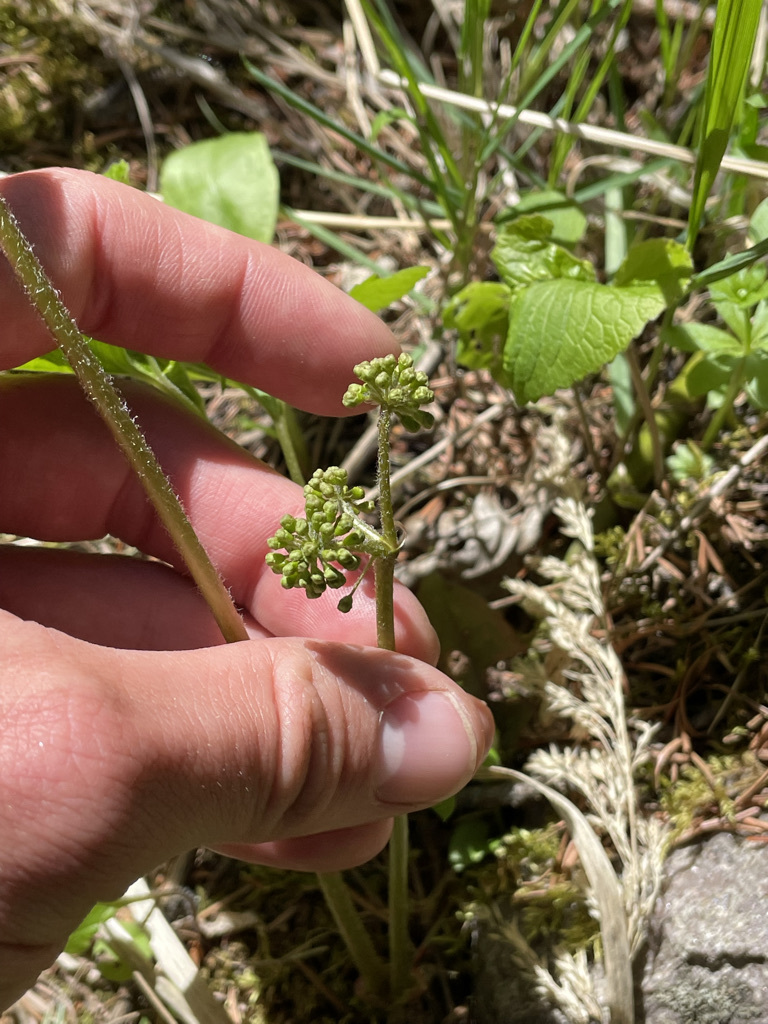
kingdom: Plantae
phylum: Tracheophyta
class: Magnoliopsida
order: Apiales
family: Araliaceae
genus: Aralia
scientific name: Aralia nudicaulis
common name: Wild sarsaparilla
